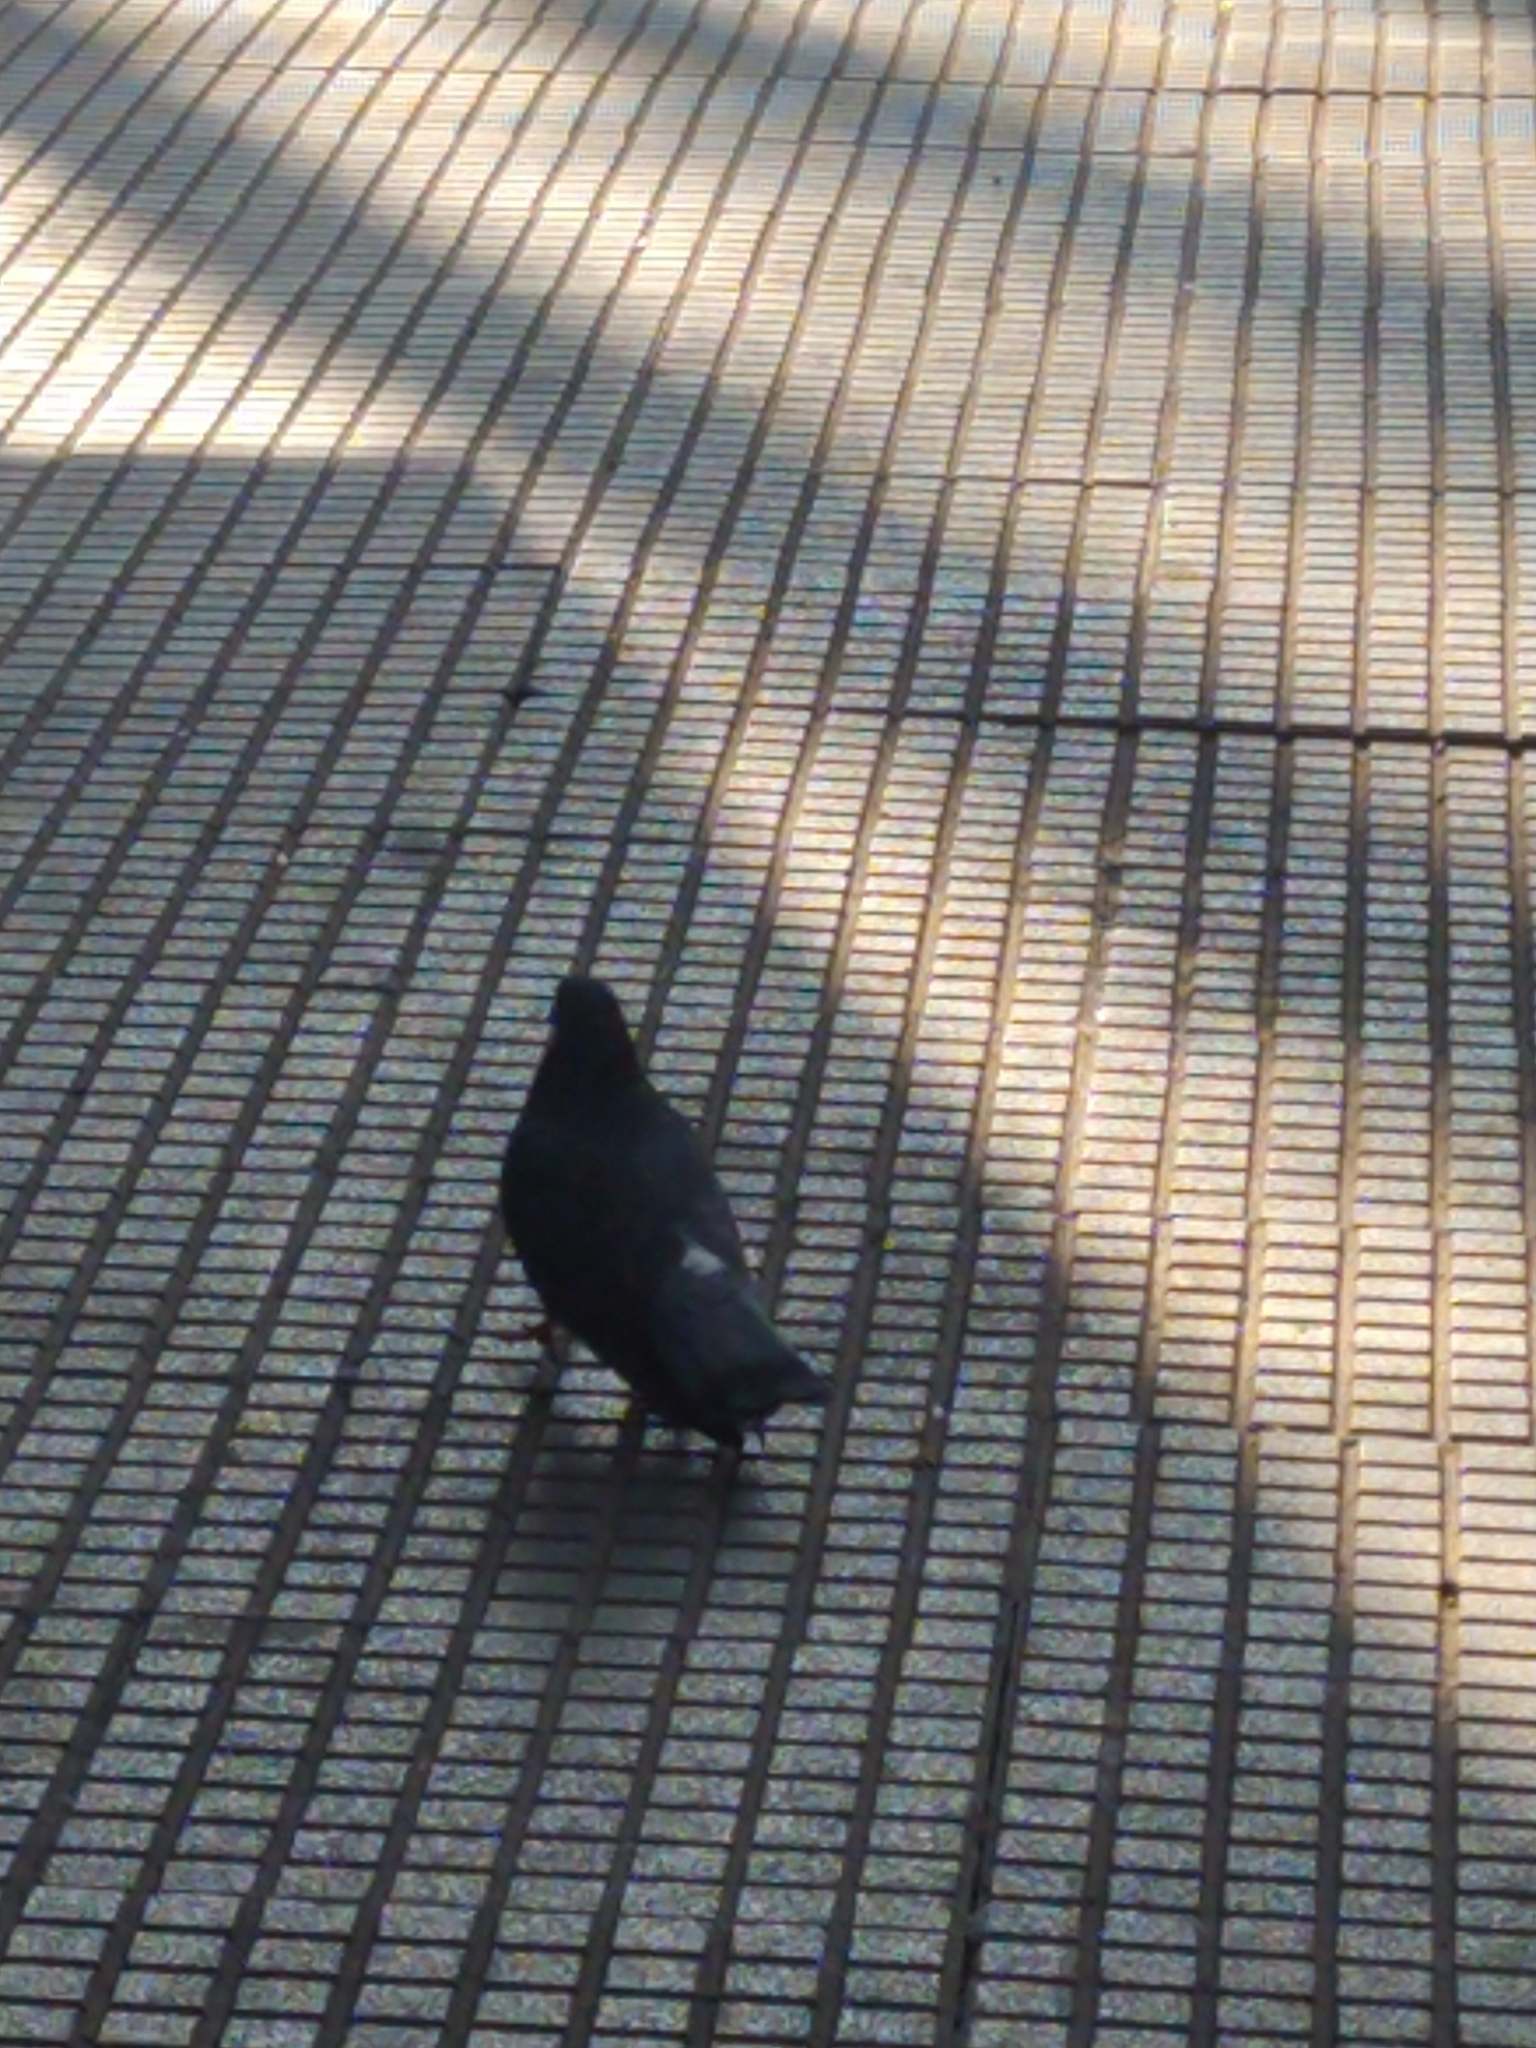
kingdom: Animalia
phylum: Chordata
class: Aves
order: Columbiformes
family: Columbidae
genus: Columba
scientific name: Columba livia
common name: Rock pigeon
